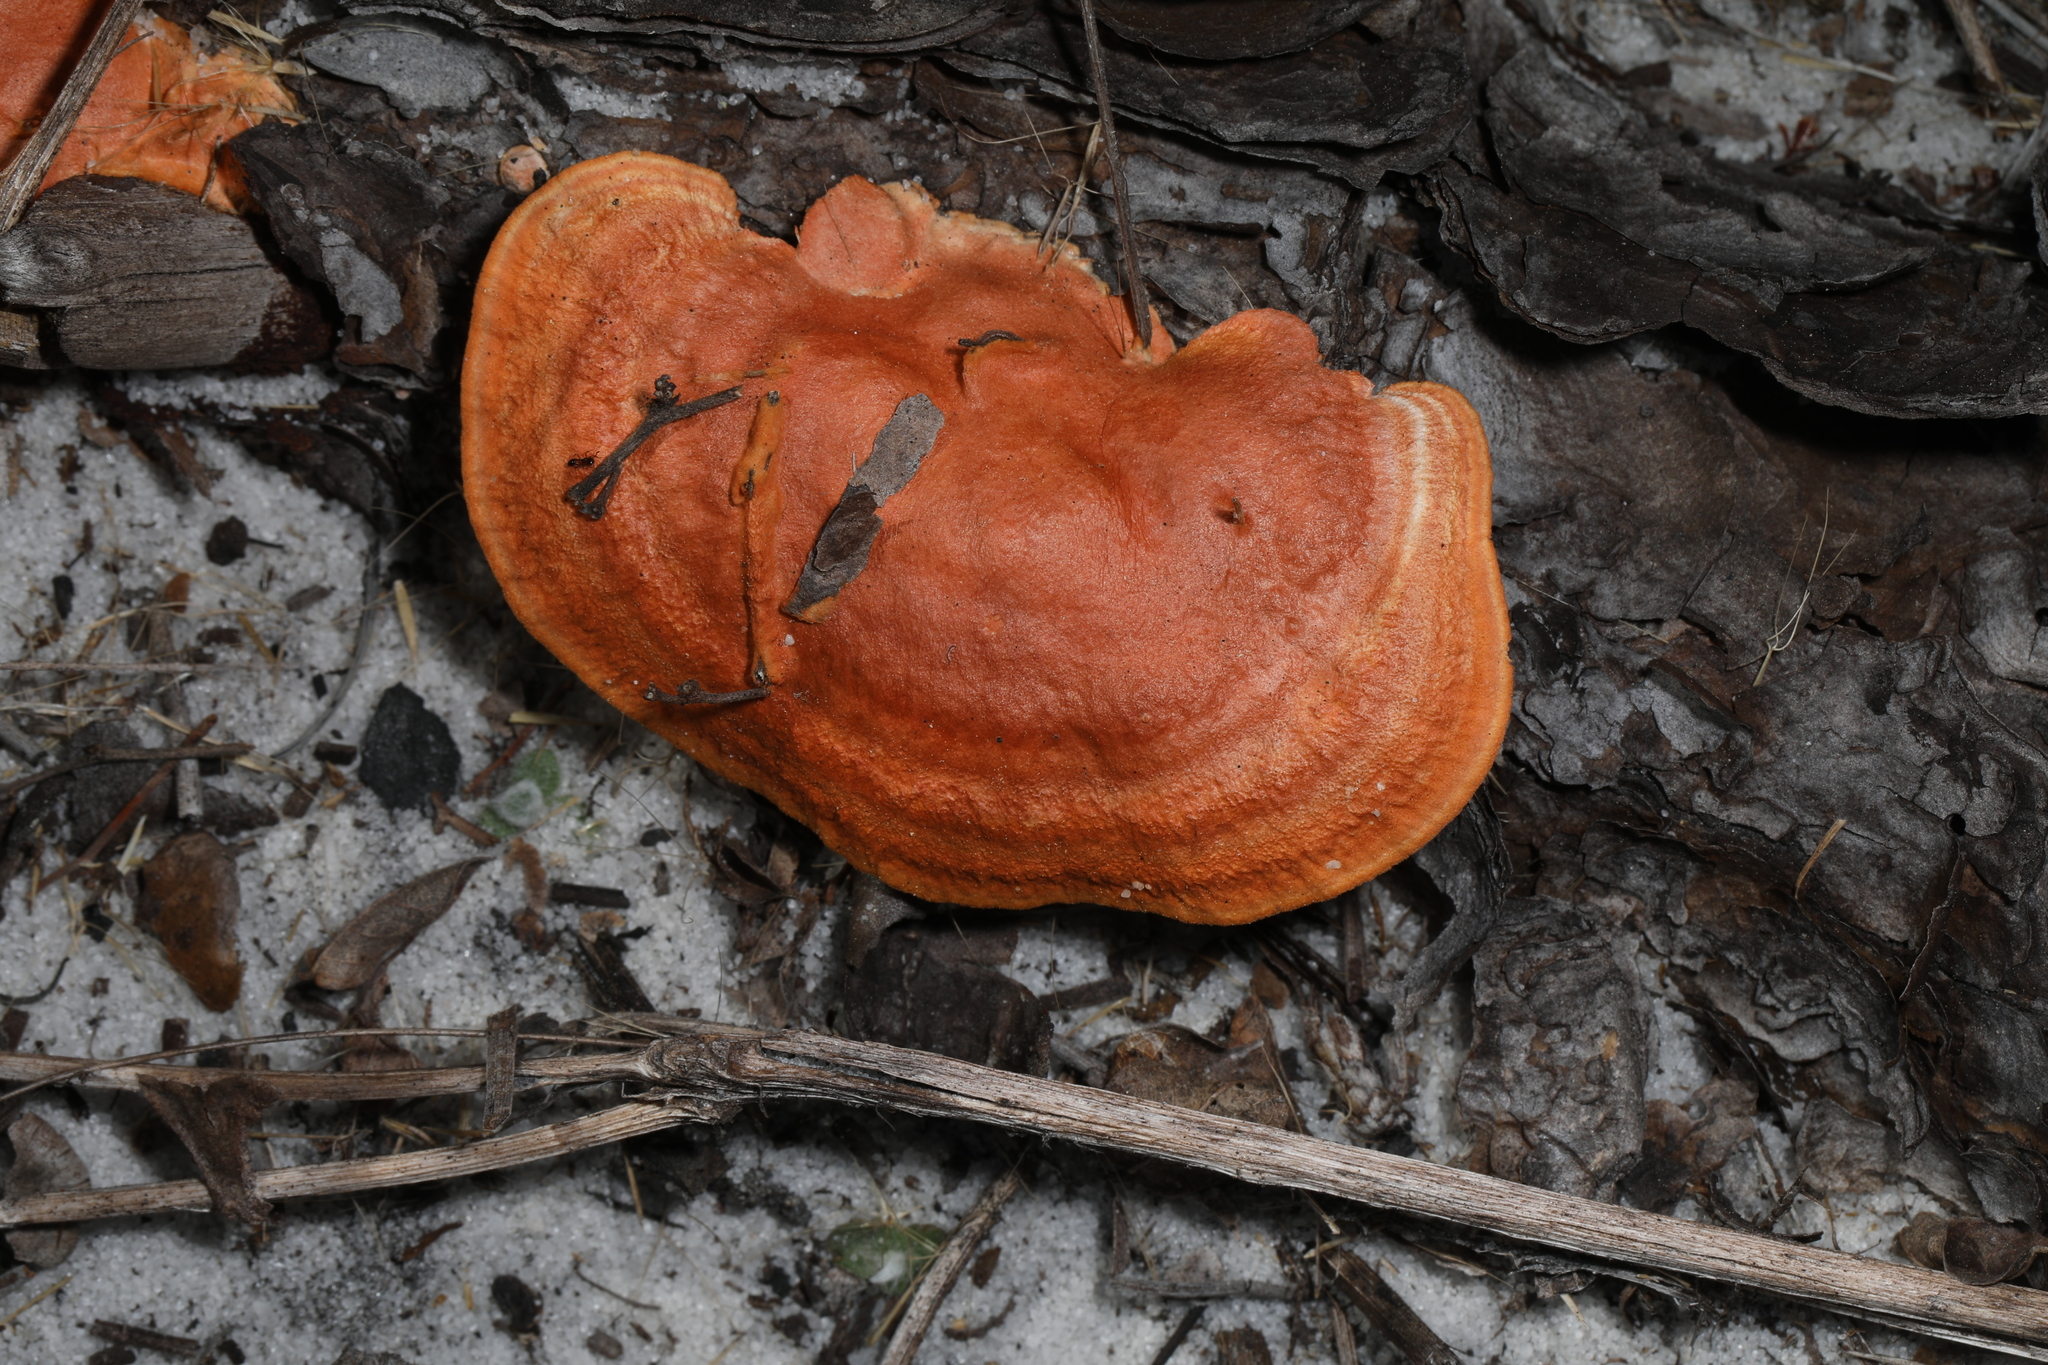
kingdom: Fungi
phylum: Basidiomycota
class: Agaricomycetes
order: Polyporales
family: Polyporaceae
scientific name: Polyporaceae
